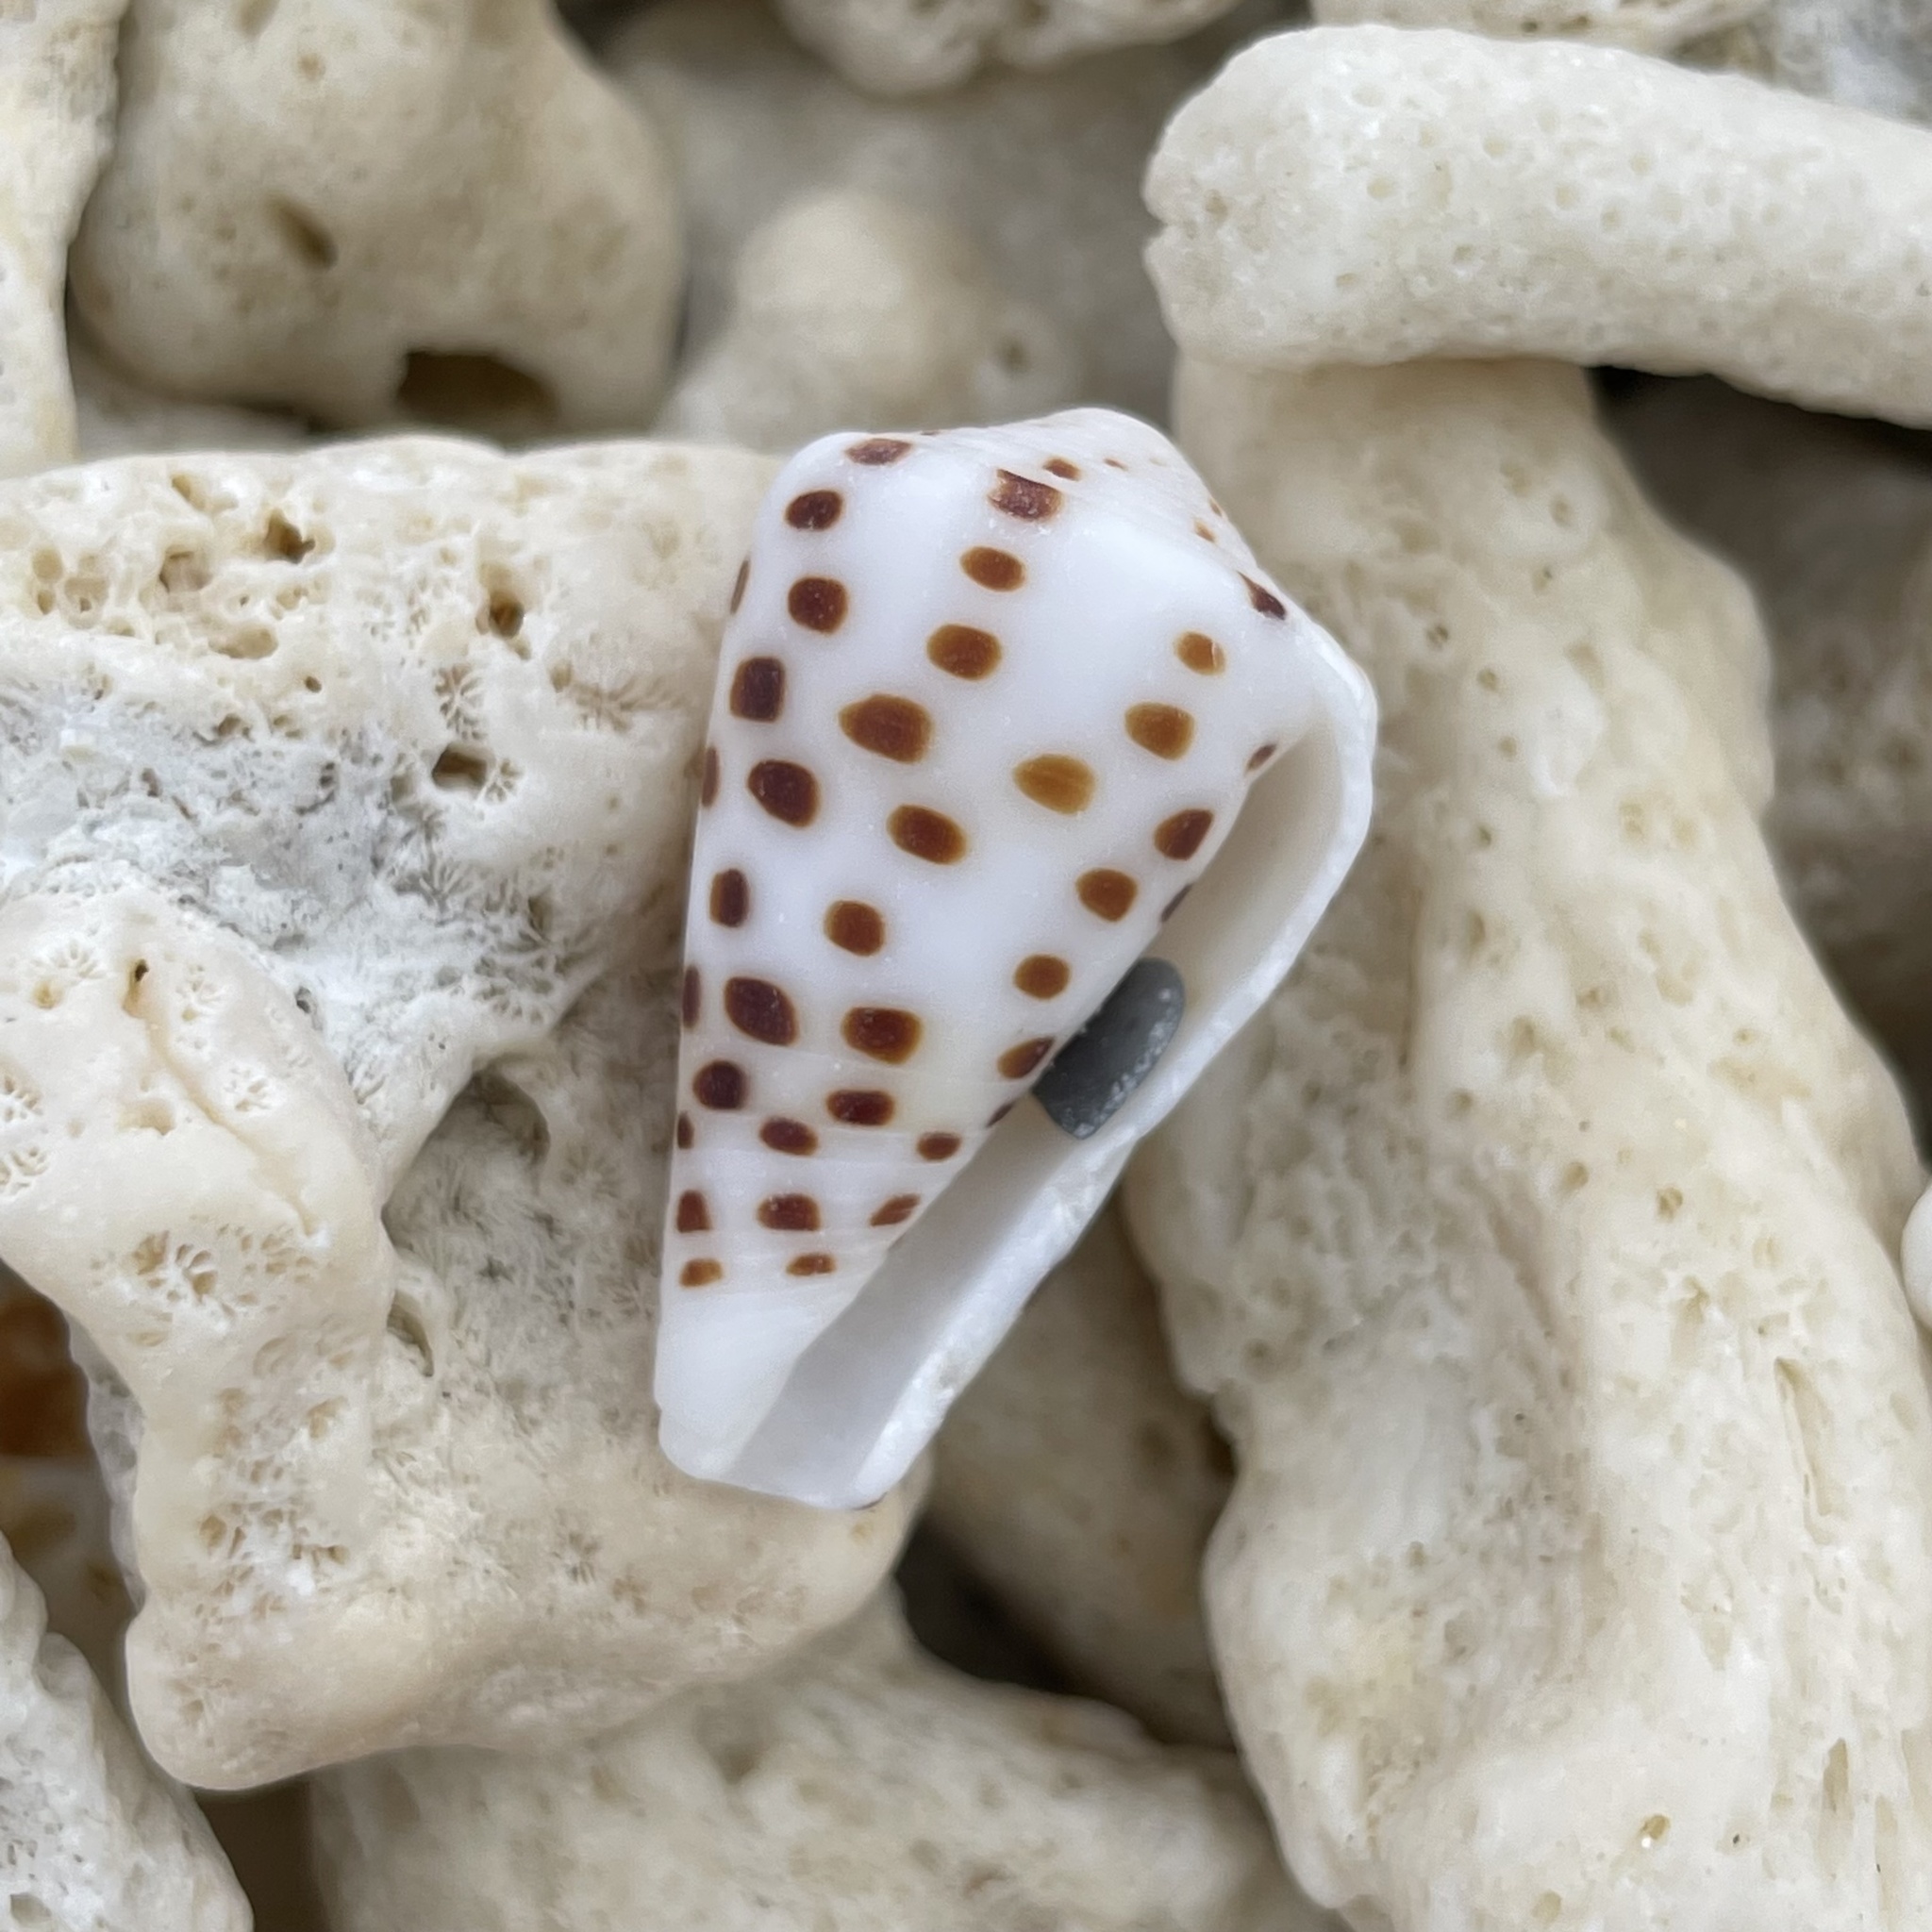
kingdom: Animalia
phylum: Mollusca
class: Gastropoda
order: Neogastropoda
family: Conidae
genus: Conus
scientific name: Conus eburneus
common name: Ivory cone
